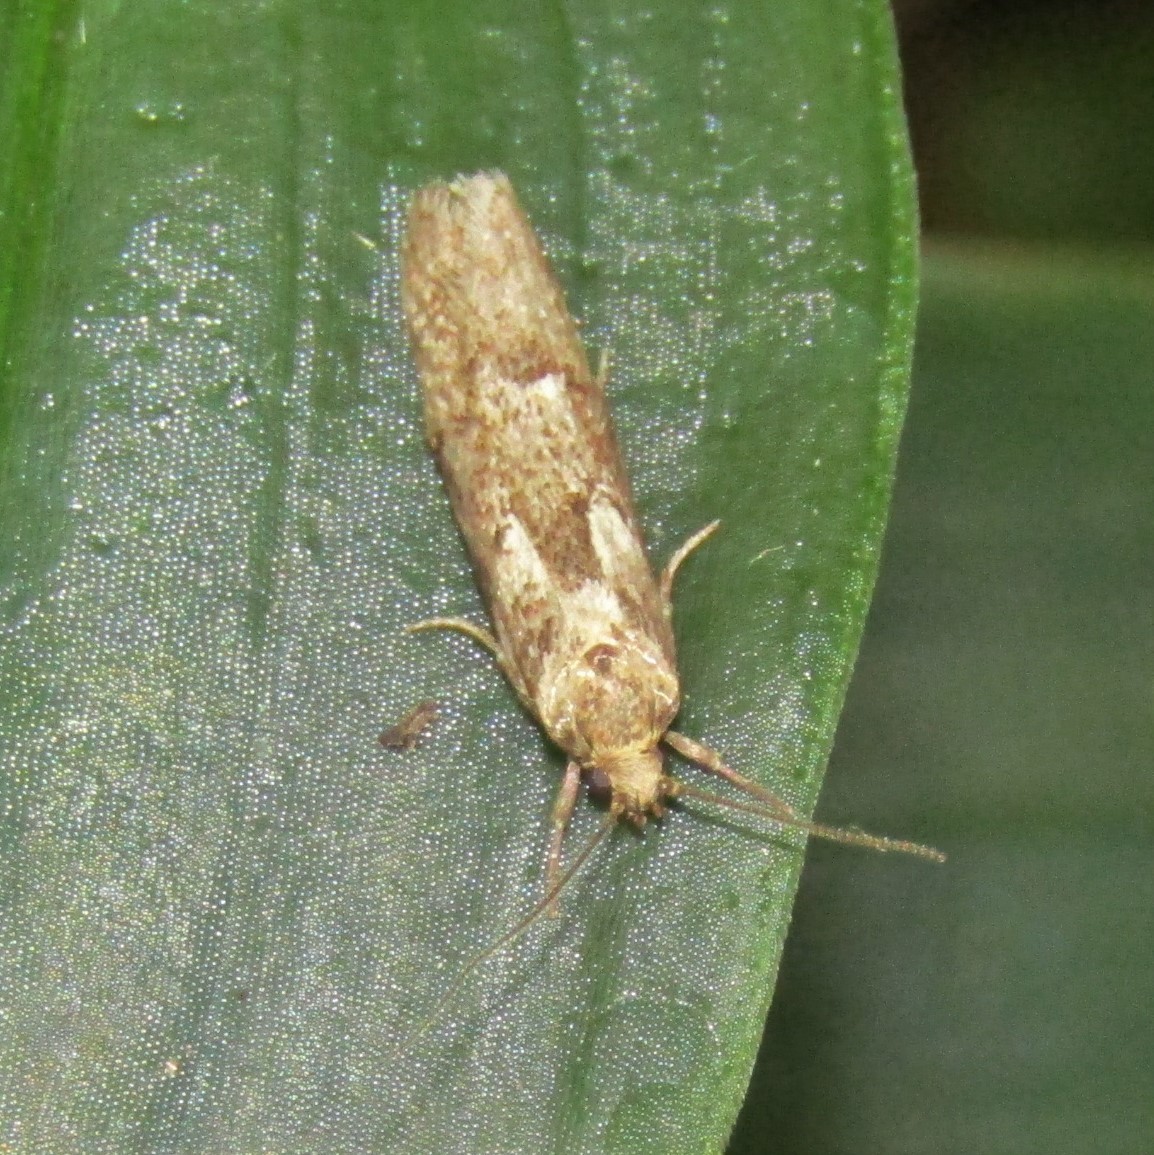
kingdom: Animalia
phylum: Arthropoda
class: Insecta
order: Lepidoptera
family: Oecophoridae
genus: Chersadaula
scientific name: Chersadaula ochrogastra
